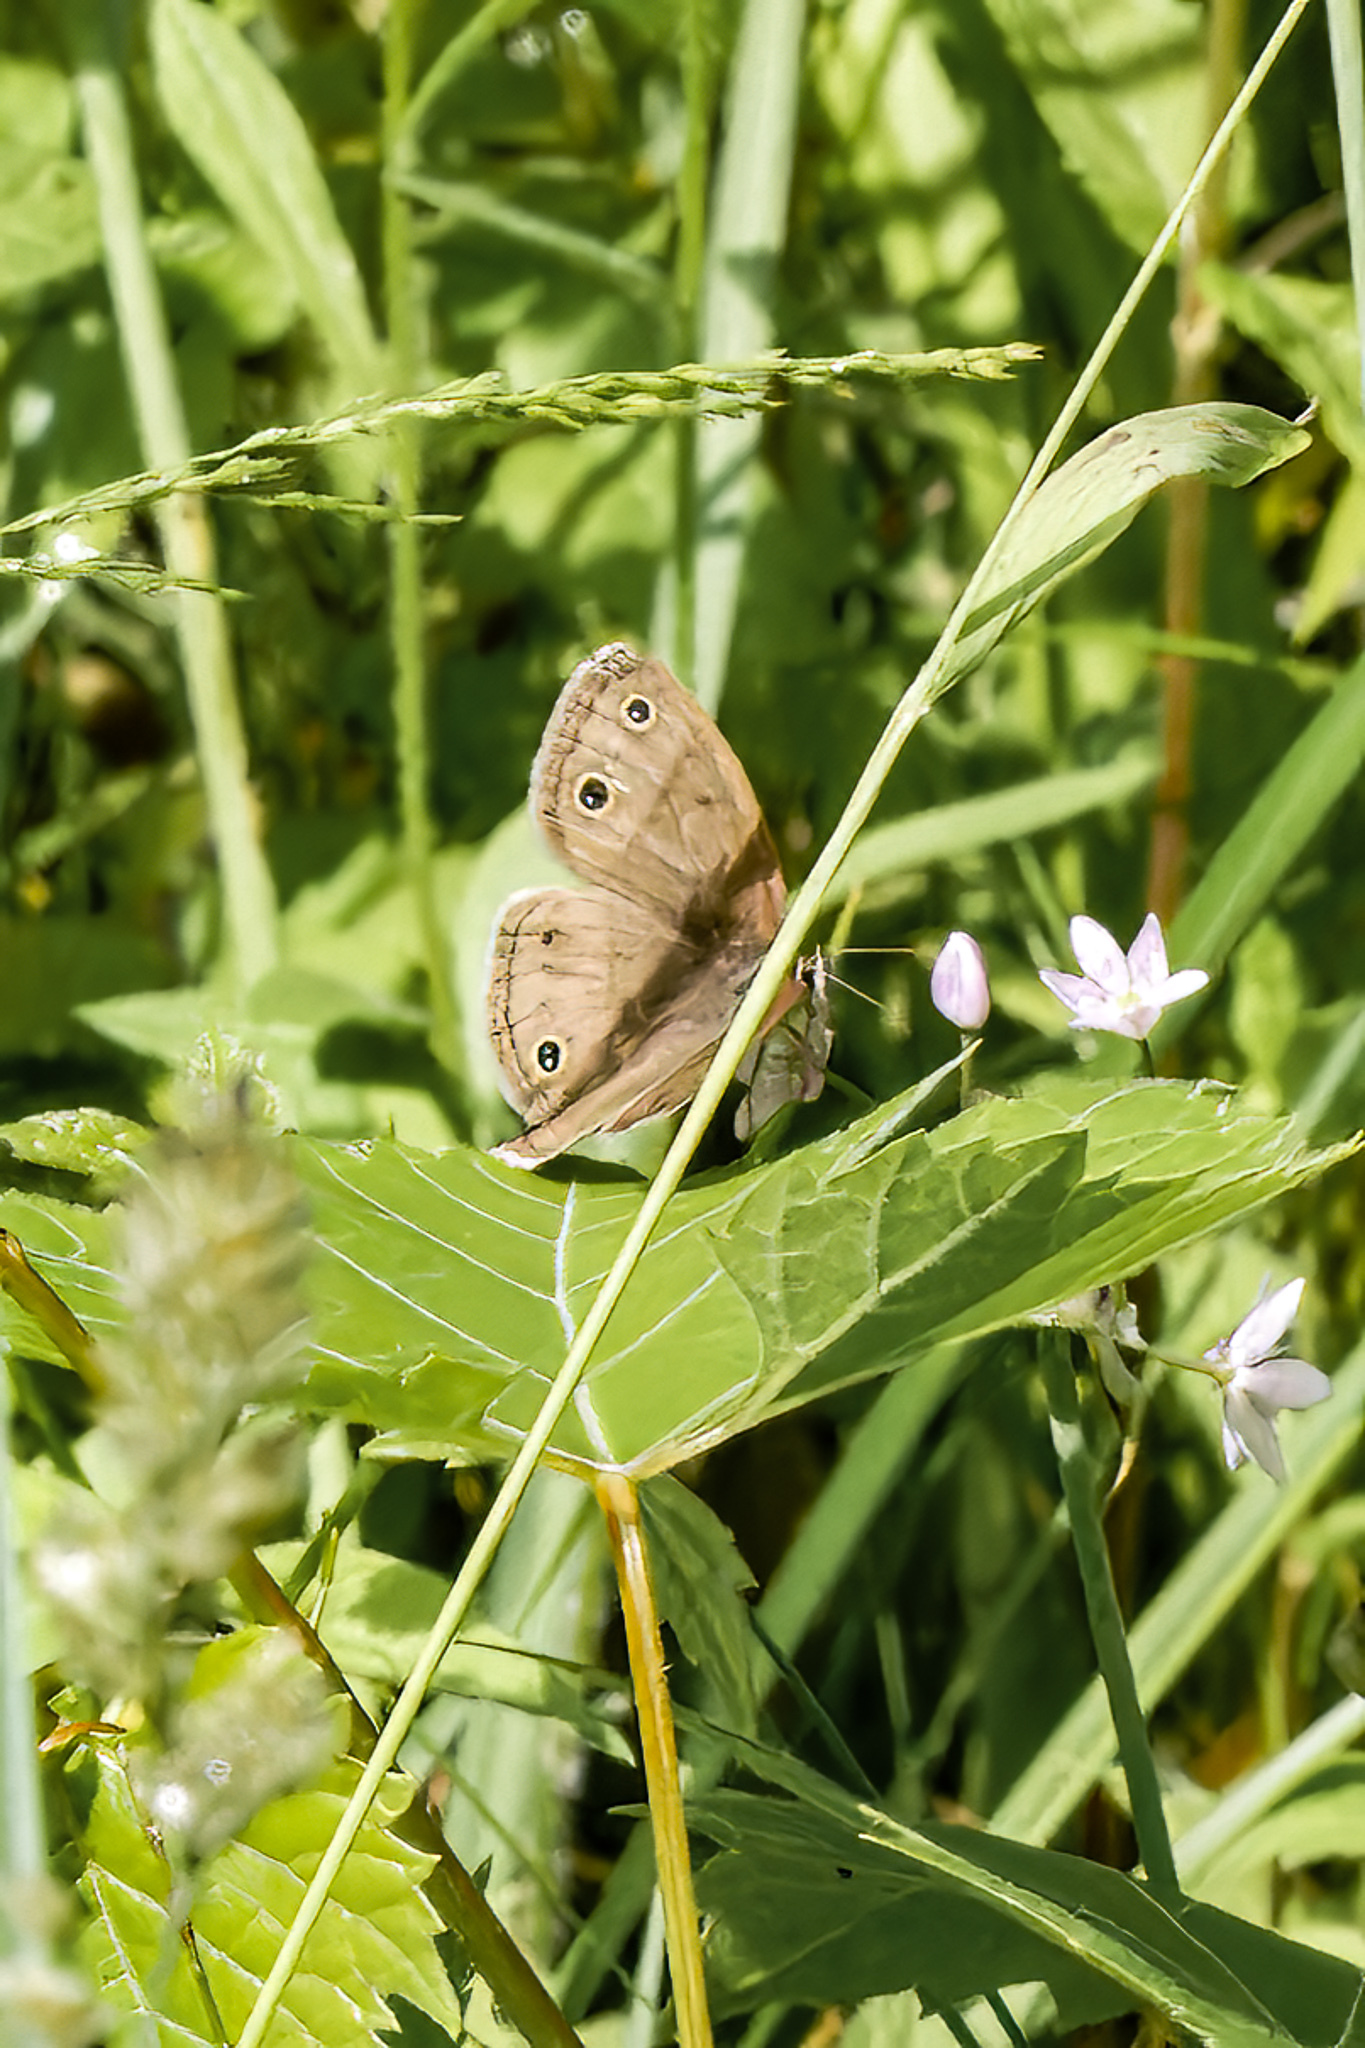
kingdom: Animalia
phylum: Arthropoda
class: Insecta
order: Lepidoptera
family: Nymphalidae
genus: Euptychia
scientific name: Euptychia cymela
